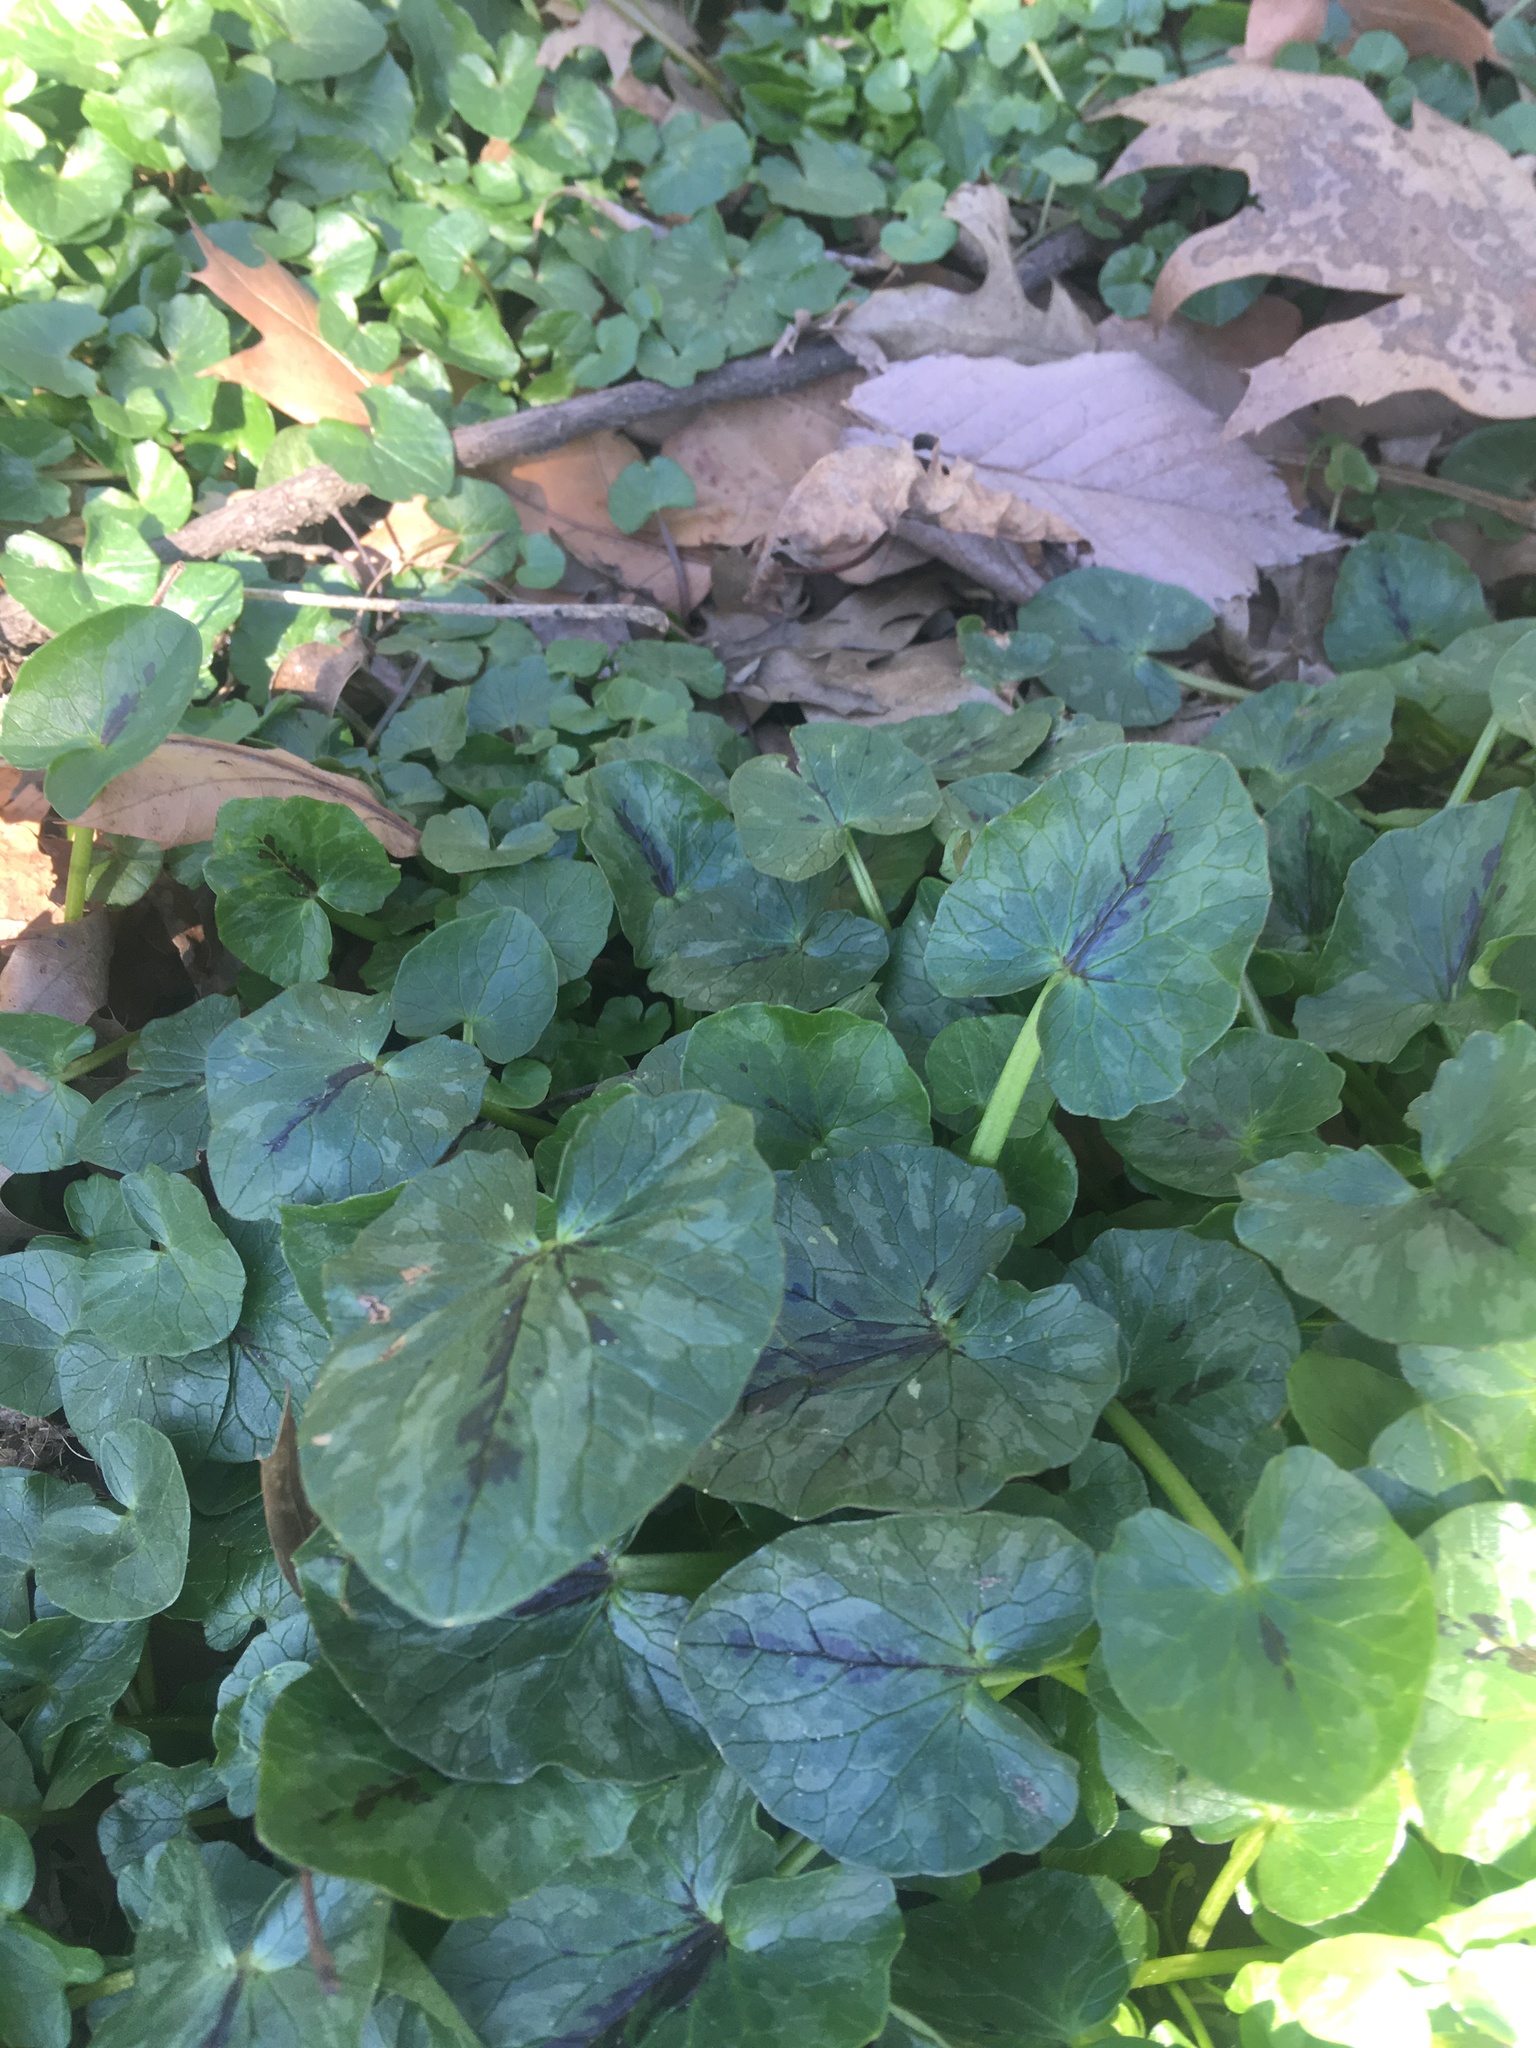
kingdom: Plantae
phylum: Tracheophyta
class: Magnoliopsida
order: Ranunculales
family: Ranunculaceae
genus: Ficaria
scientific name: Ficaria verna
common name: Lesser celandine
